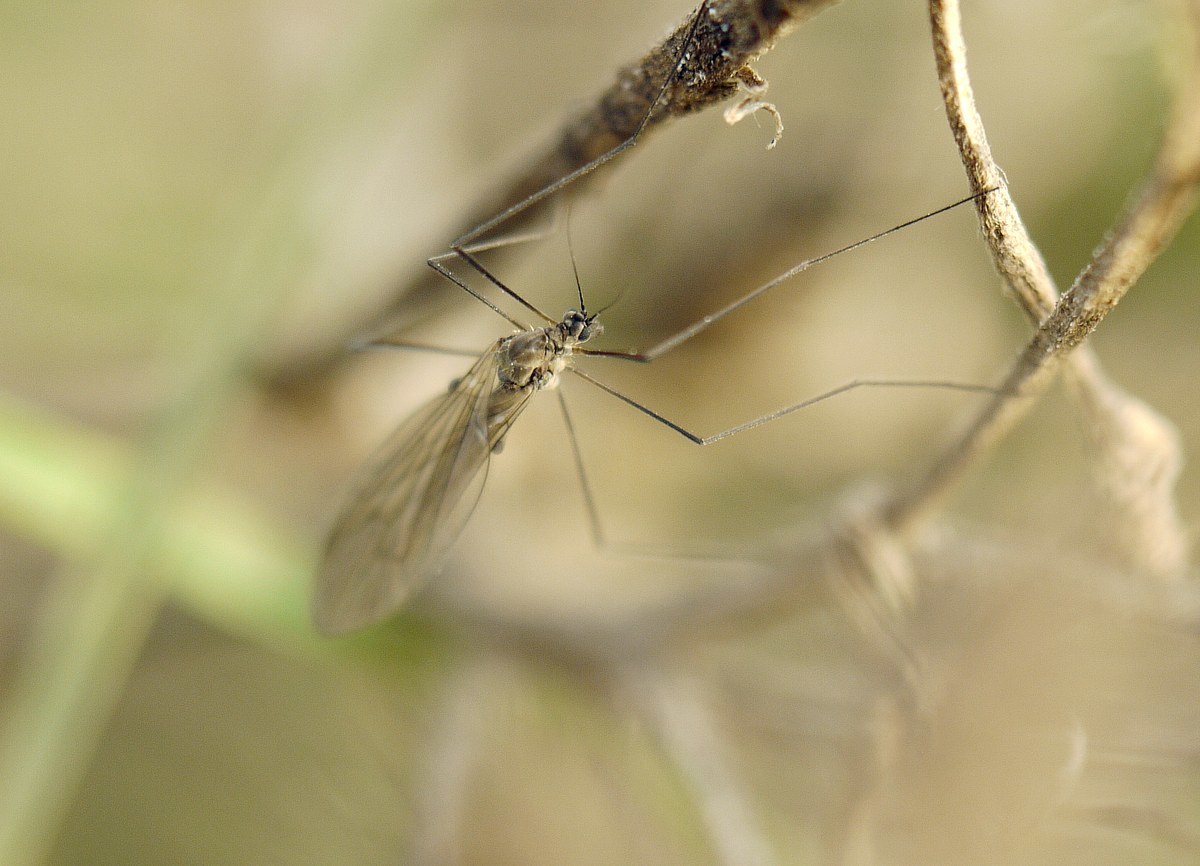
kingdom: Animalia
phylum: Arthropoda
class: Insecta
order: Diptera
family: Trichoceridae
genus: Trichocera
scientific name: Trichocera
